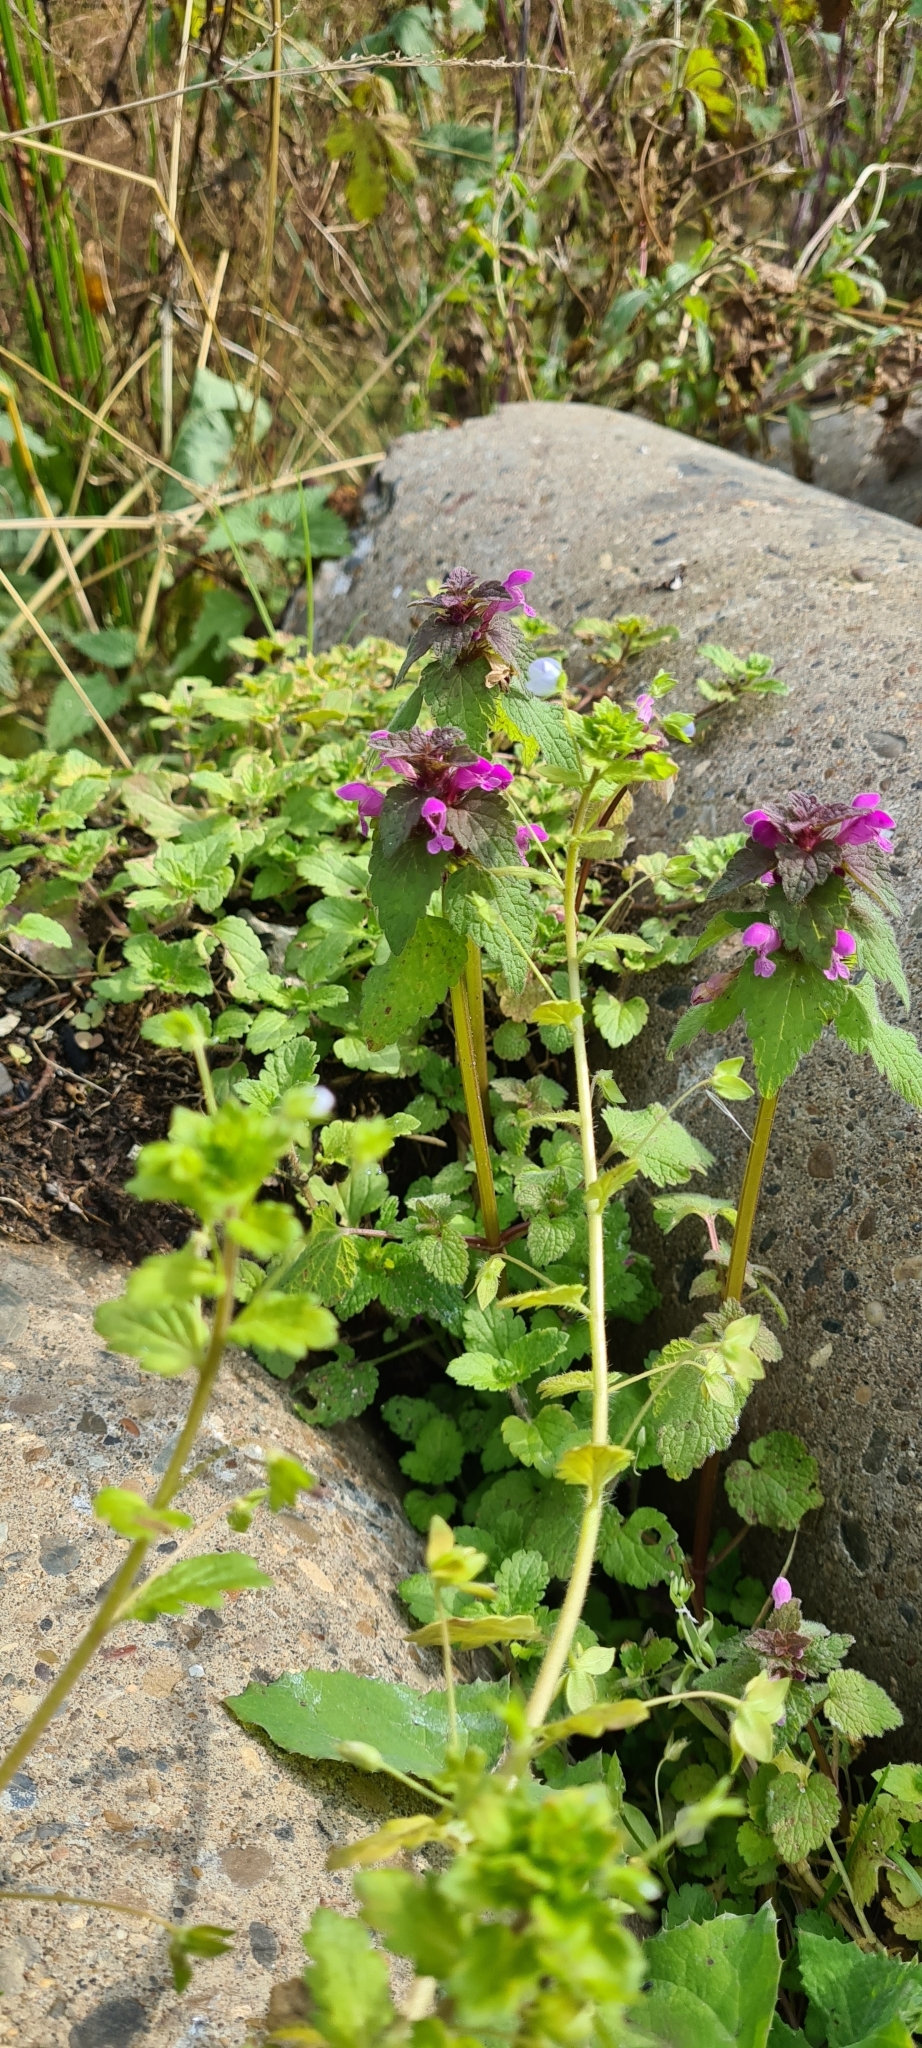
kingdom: Plantae
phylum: Tracheophyta
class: Magnoliopsida
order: Lamiales
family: Lamiaceae
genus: Lamium
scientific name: Lamium purpureum
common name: Red dead-nettle
